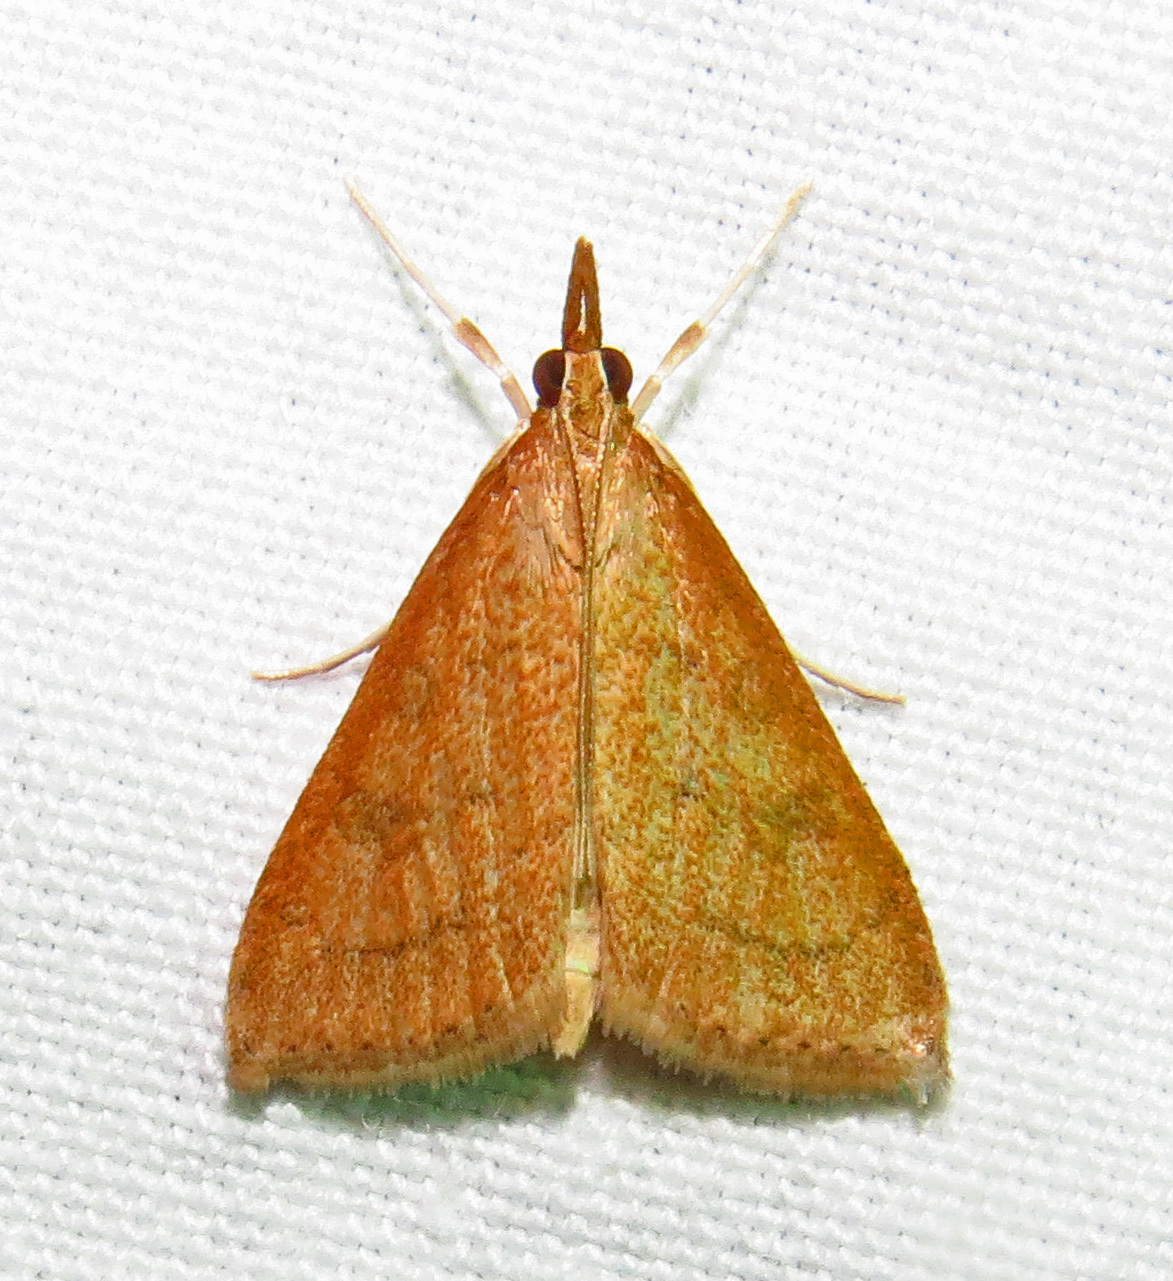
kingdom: Animalia
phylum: Arthropoda
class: Insecta
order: Lepidoptera
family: Crambidae
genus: Udea
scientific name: Udea rubigalis
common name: Celery leaftier moth
